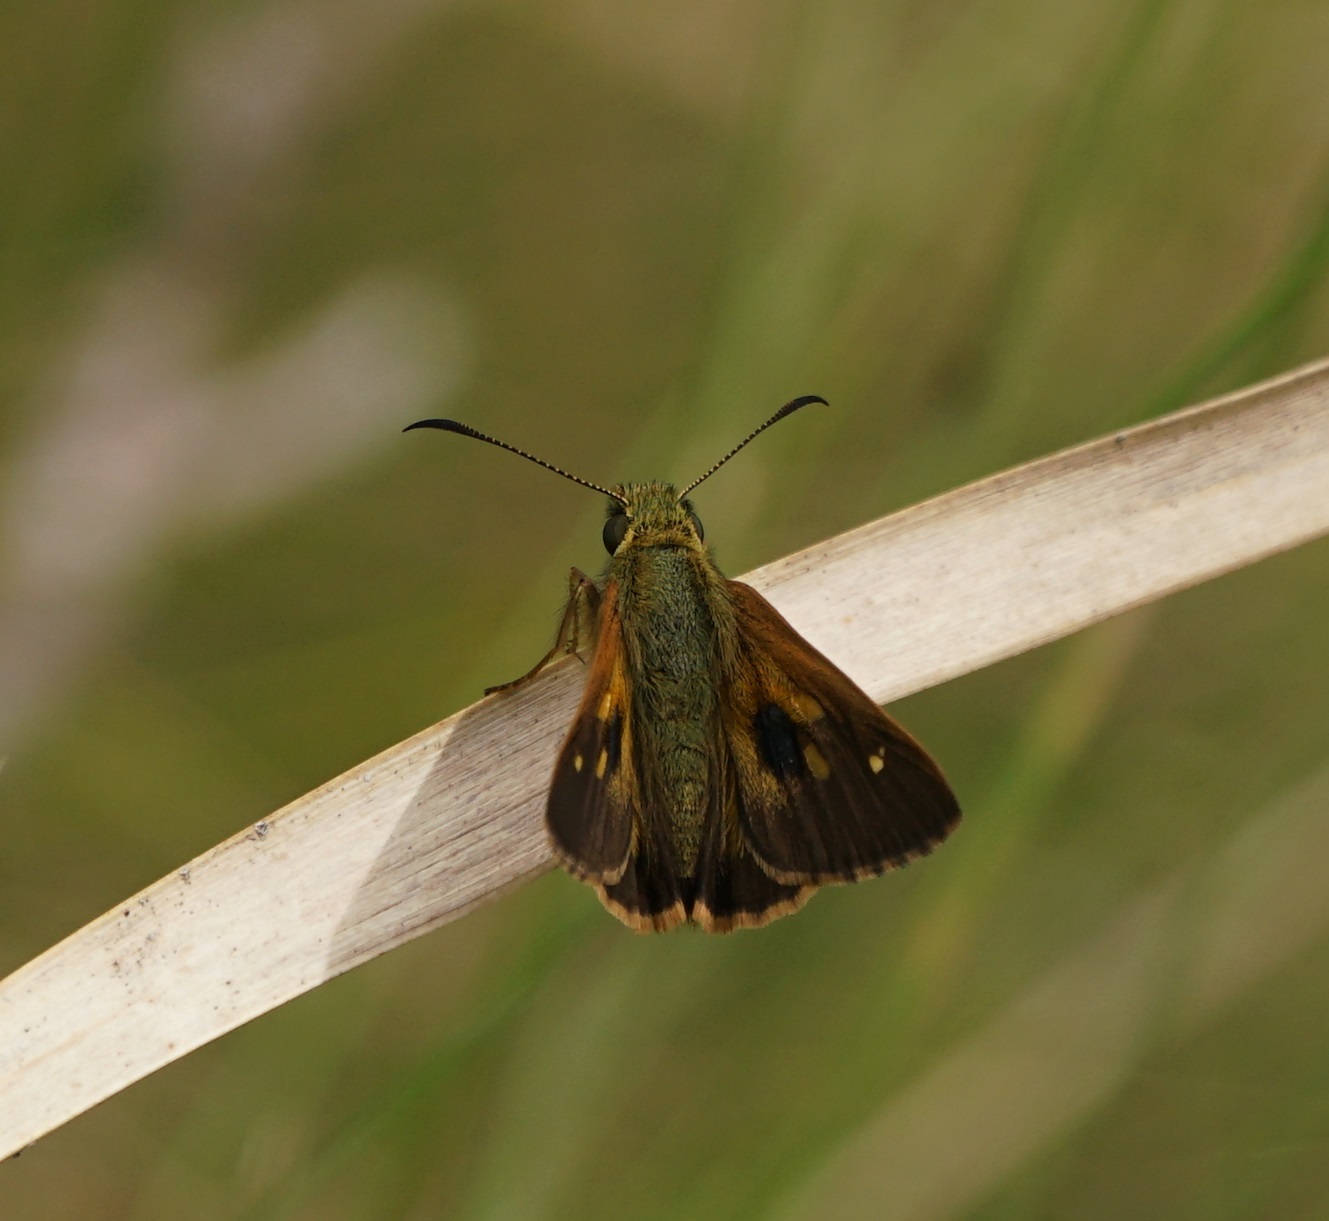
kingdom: Animalia
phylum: Arthropoda
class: Insecta
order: Lepidoptera
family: Hesperiidae
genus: Toxidia
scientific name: Toxidia
